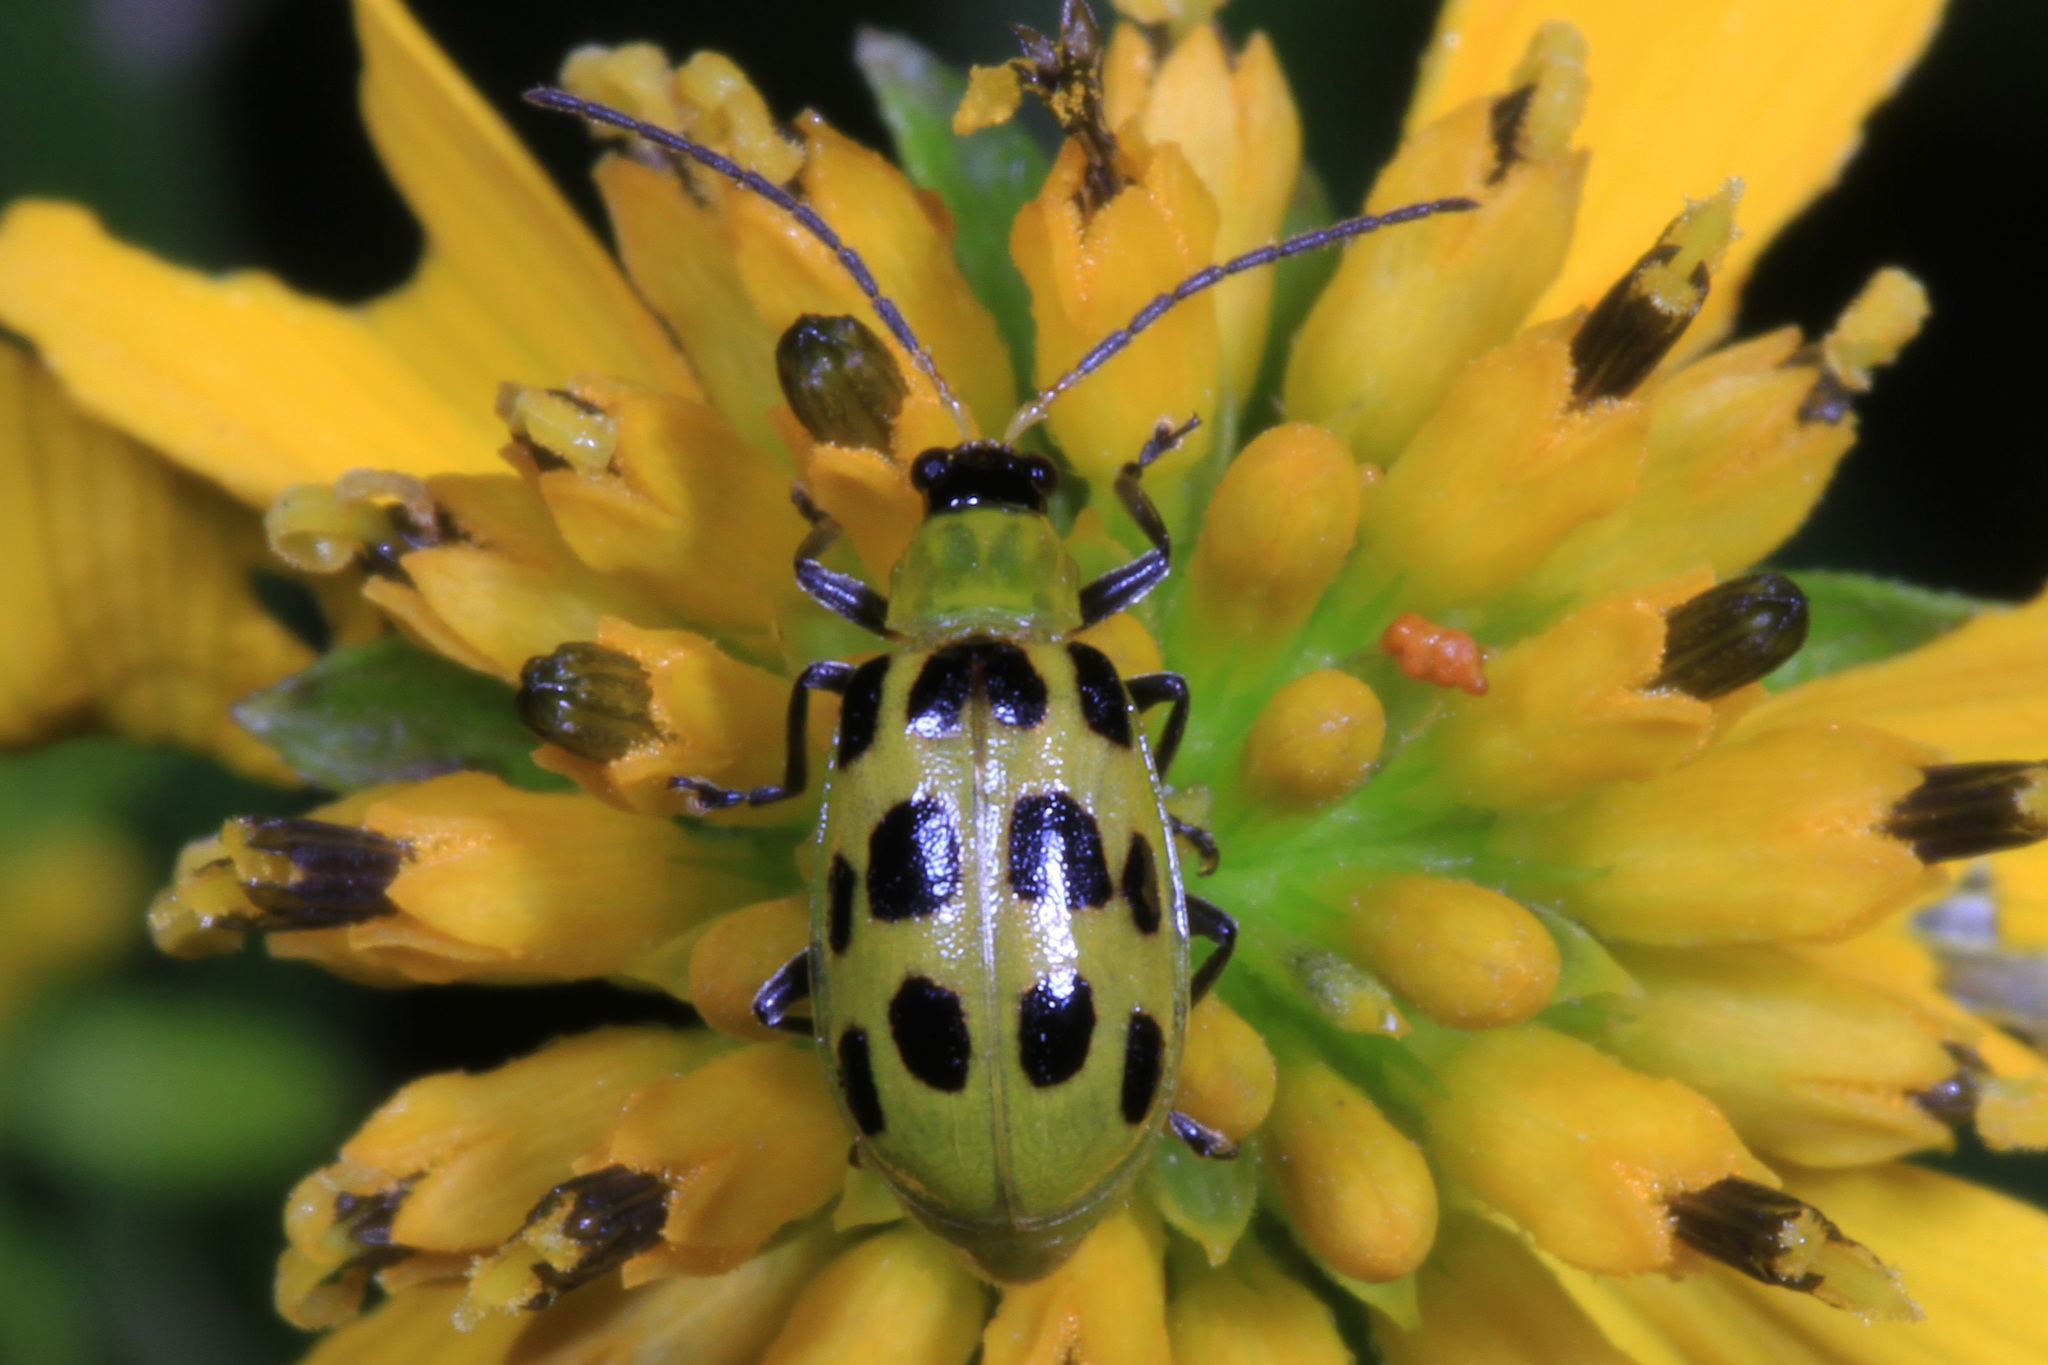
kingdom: Animalia
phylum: Arthropoda
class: Insecta
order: Coleoptera
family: Chrysomelidae
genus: Diabrotica
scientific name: Diabrotica undecimpunctata
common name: Spotted cucumber beetle
